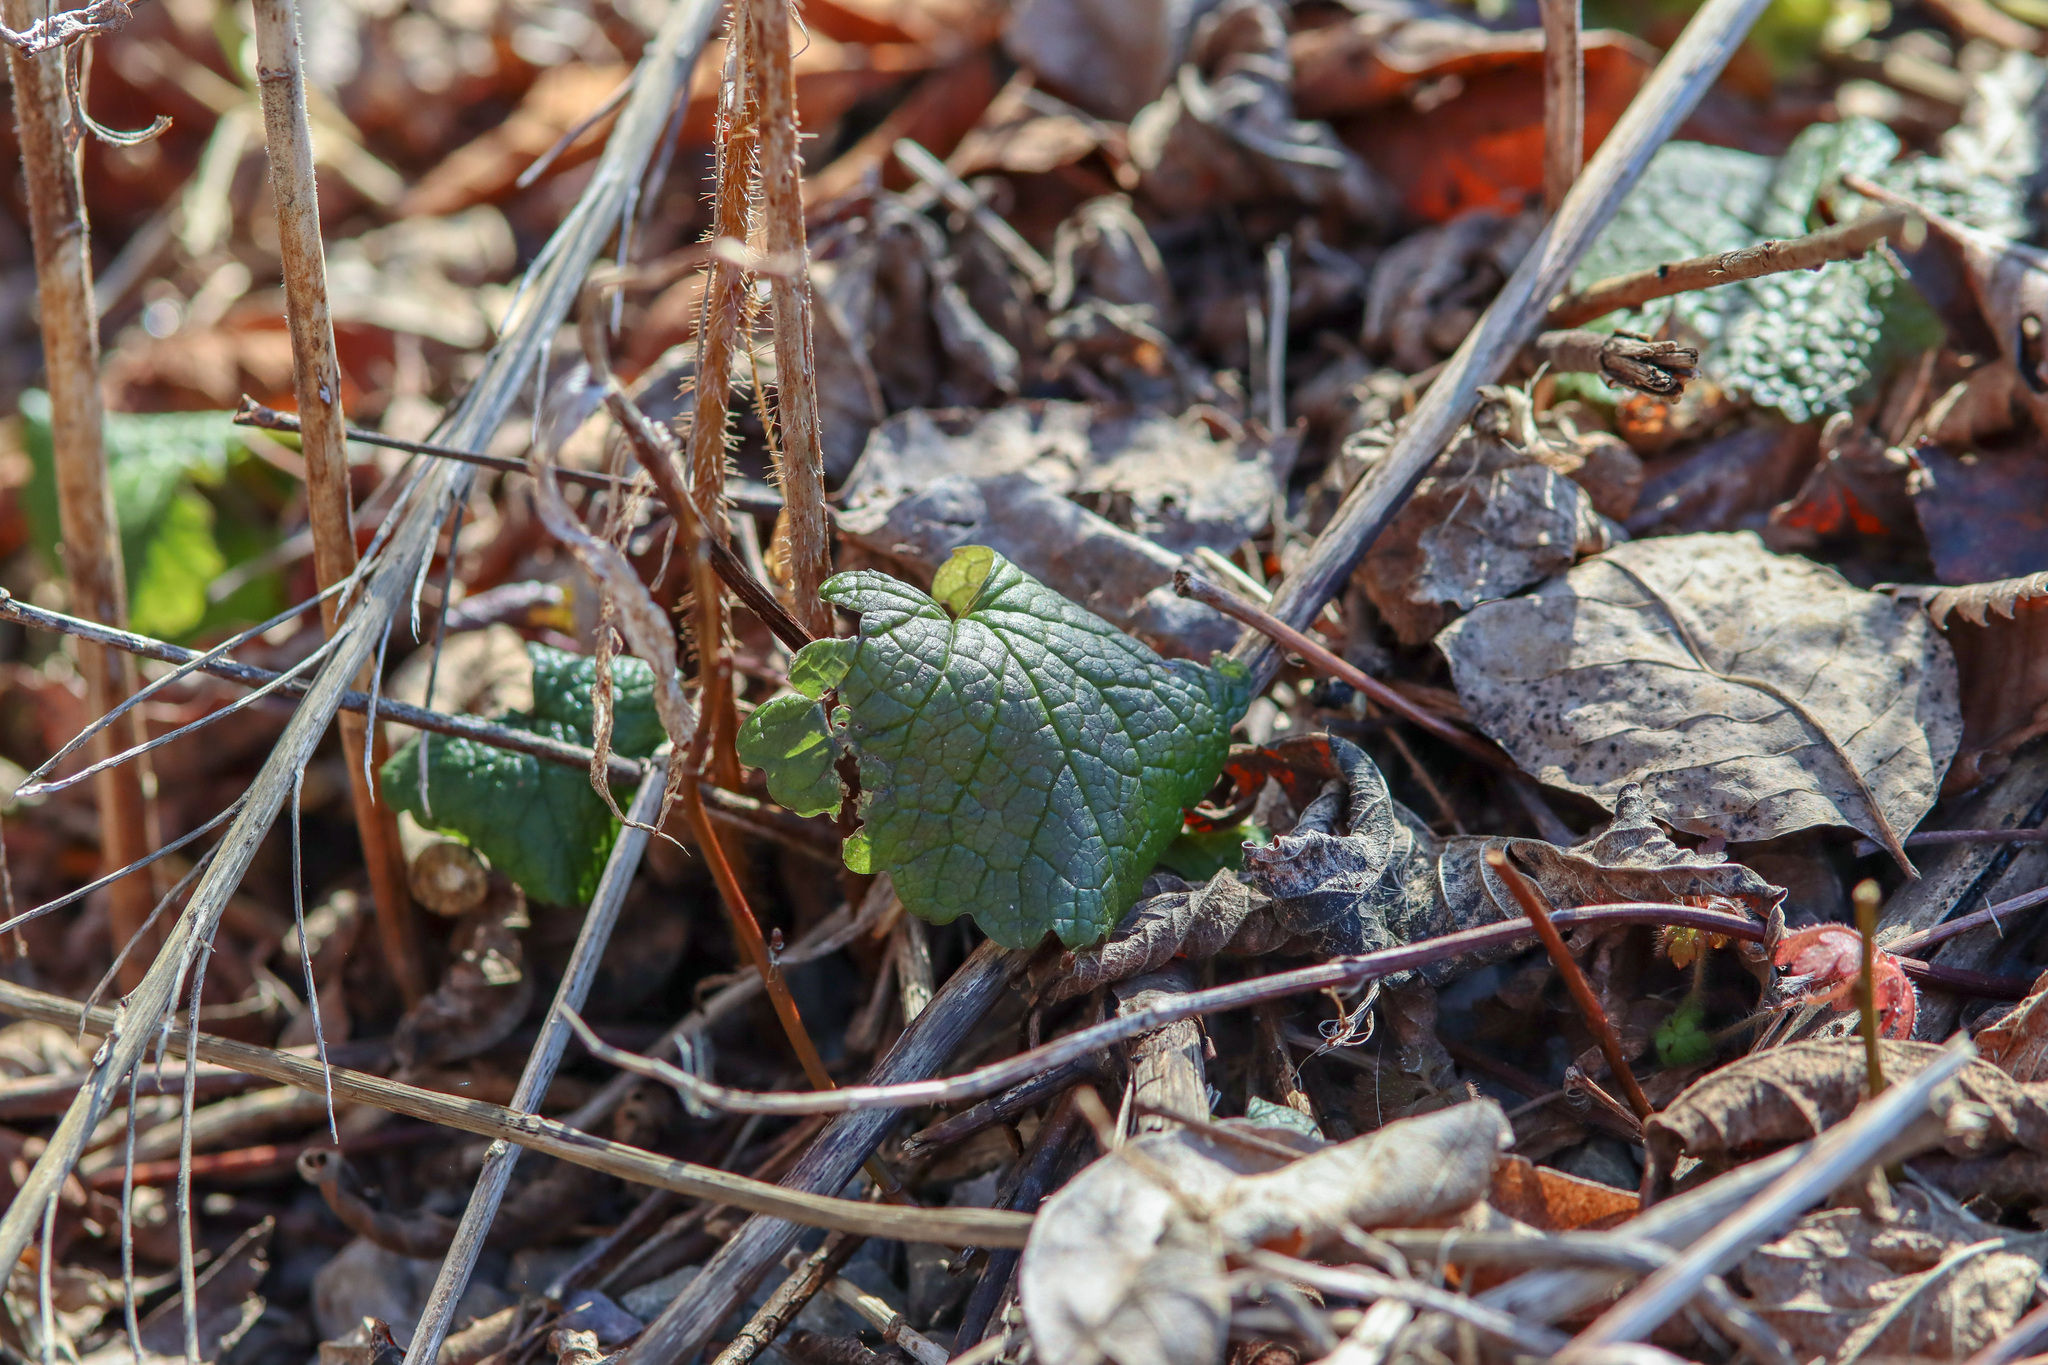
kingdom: Plantae
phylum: Tracheophyta
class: Magnoliopsida
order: Brassicales
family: Brassicaceae
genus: Alliaria
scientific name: Alliaria petiolata
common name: Garlic mustard
